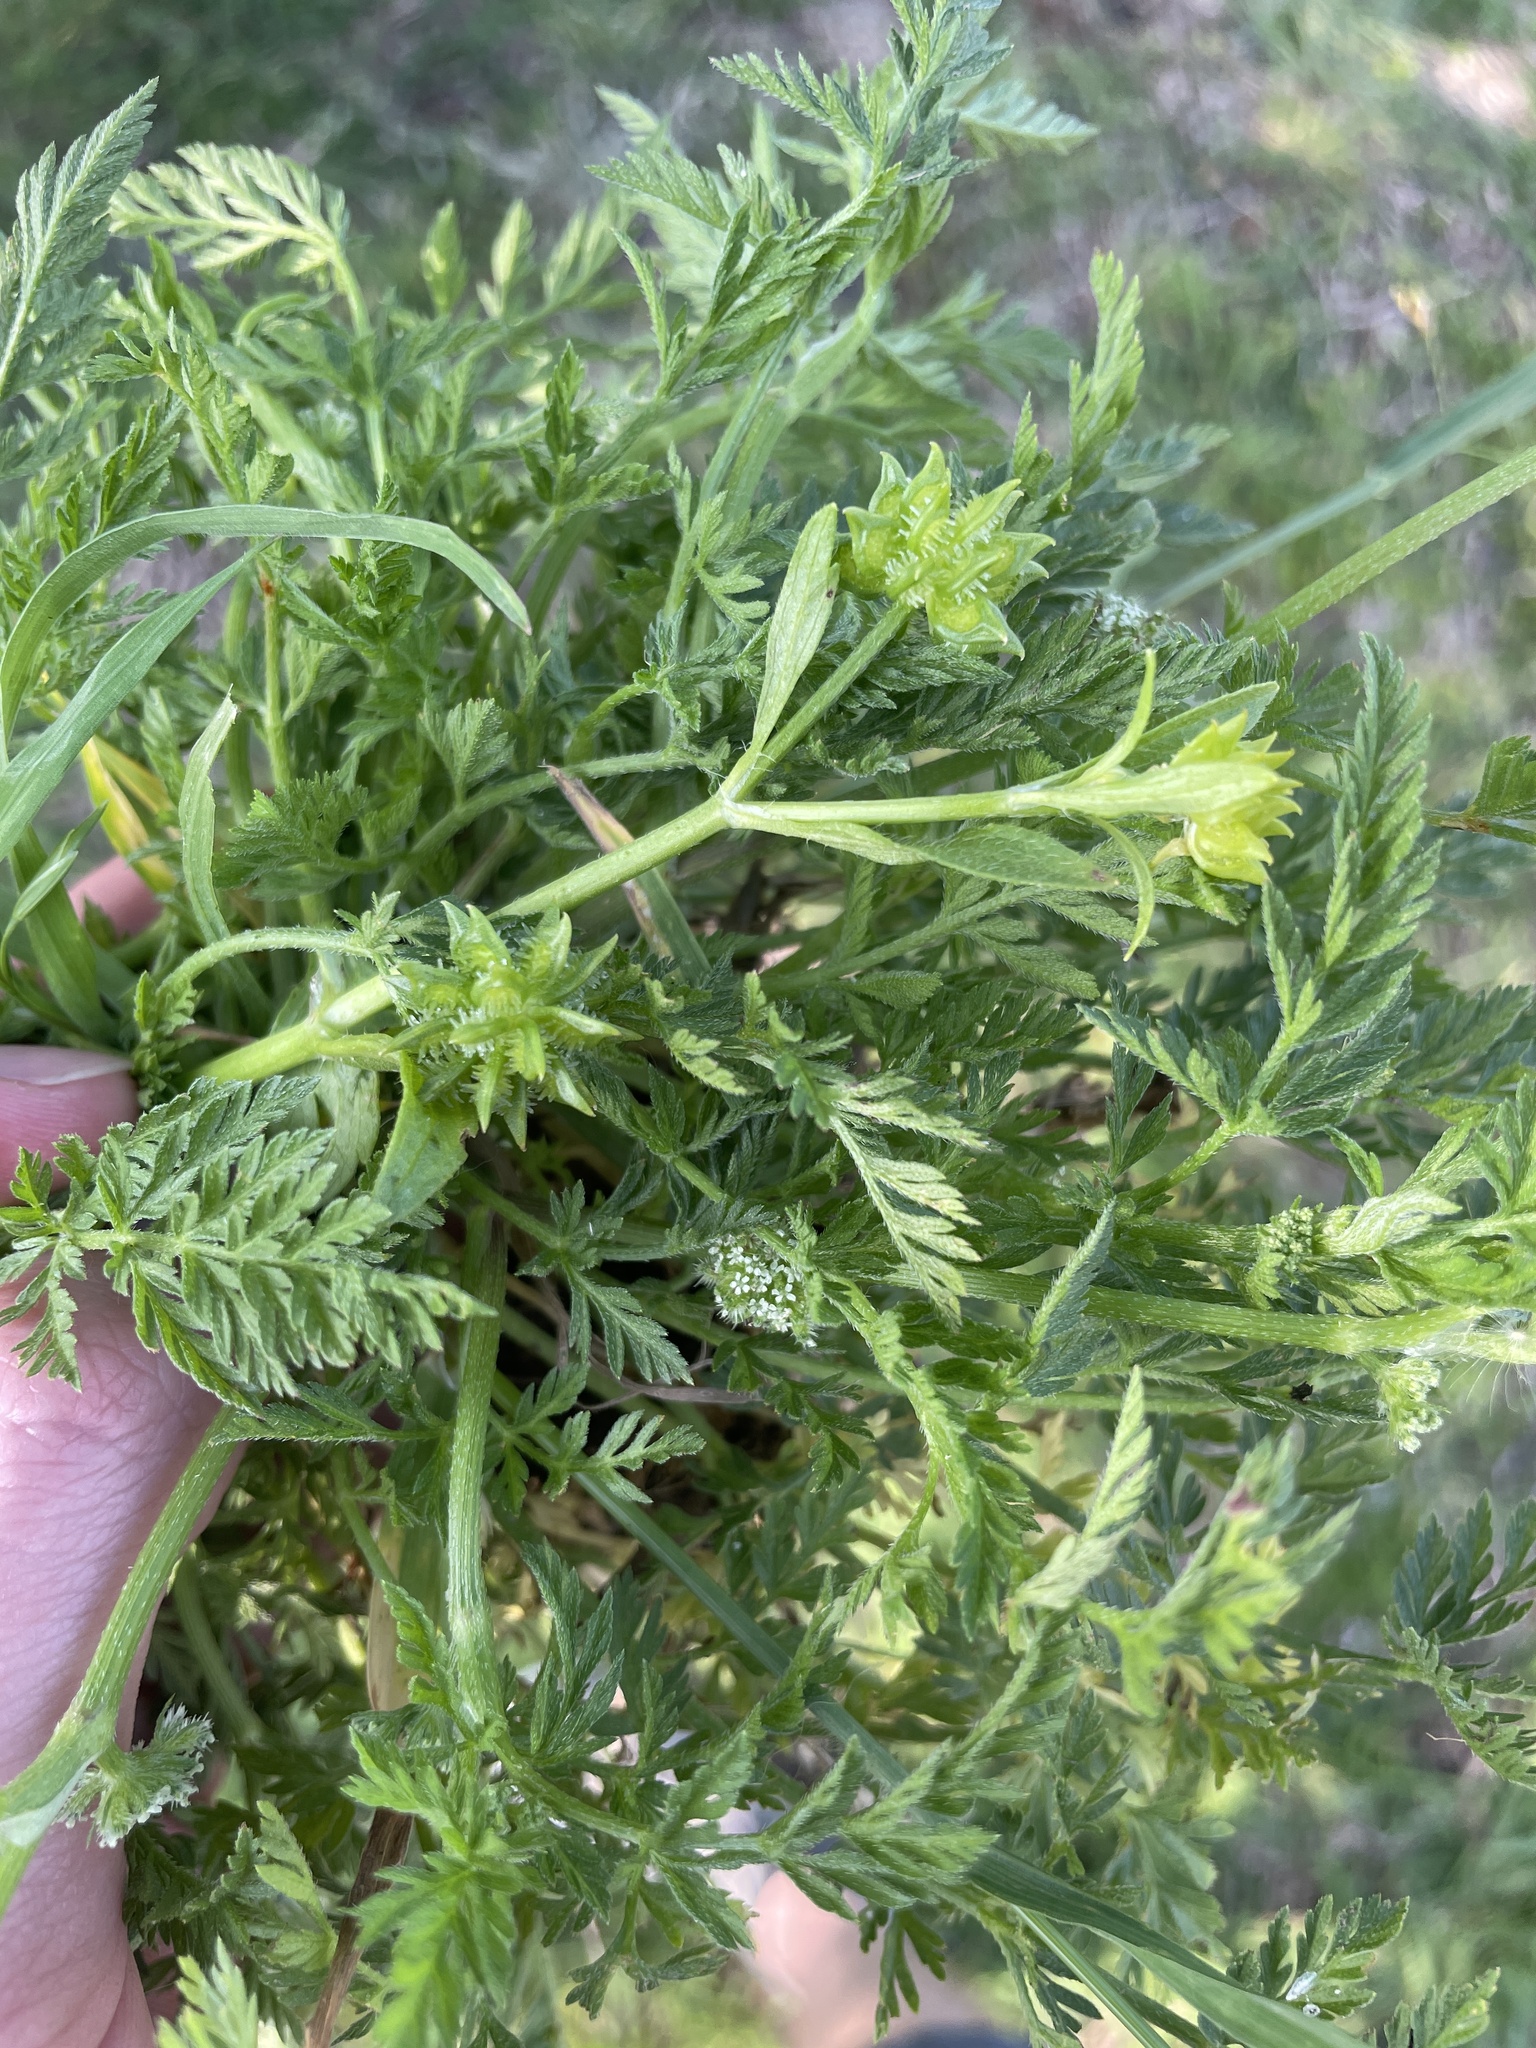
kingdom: Plantae
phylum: Tracheophyta
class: Magnoliopsida
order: Apiales
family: Apiaceae
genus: Torilis
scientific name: Torilis nodosa
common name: Knotted hedge-parsley
